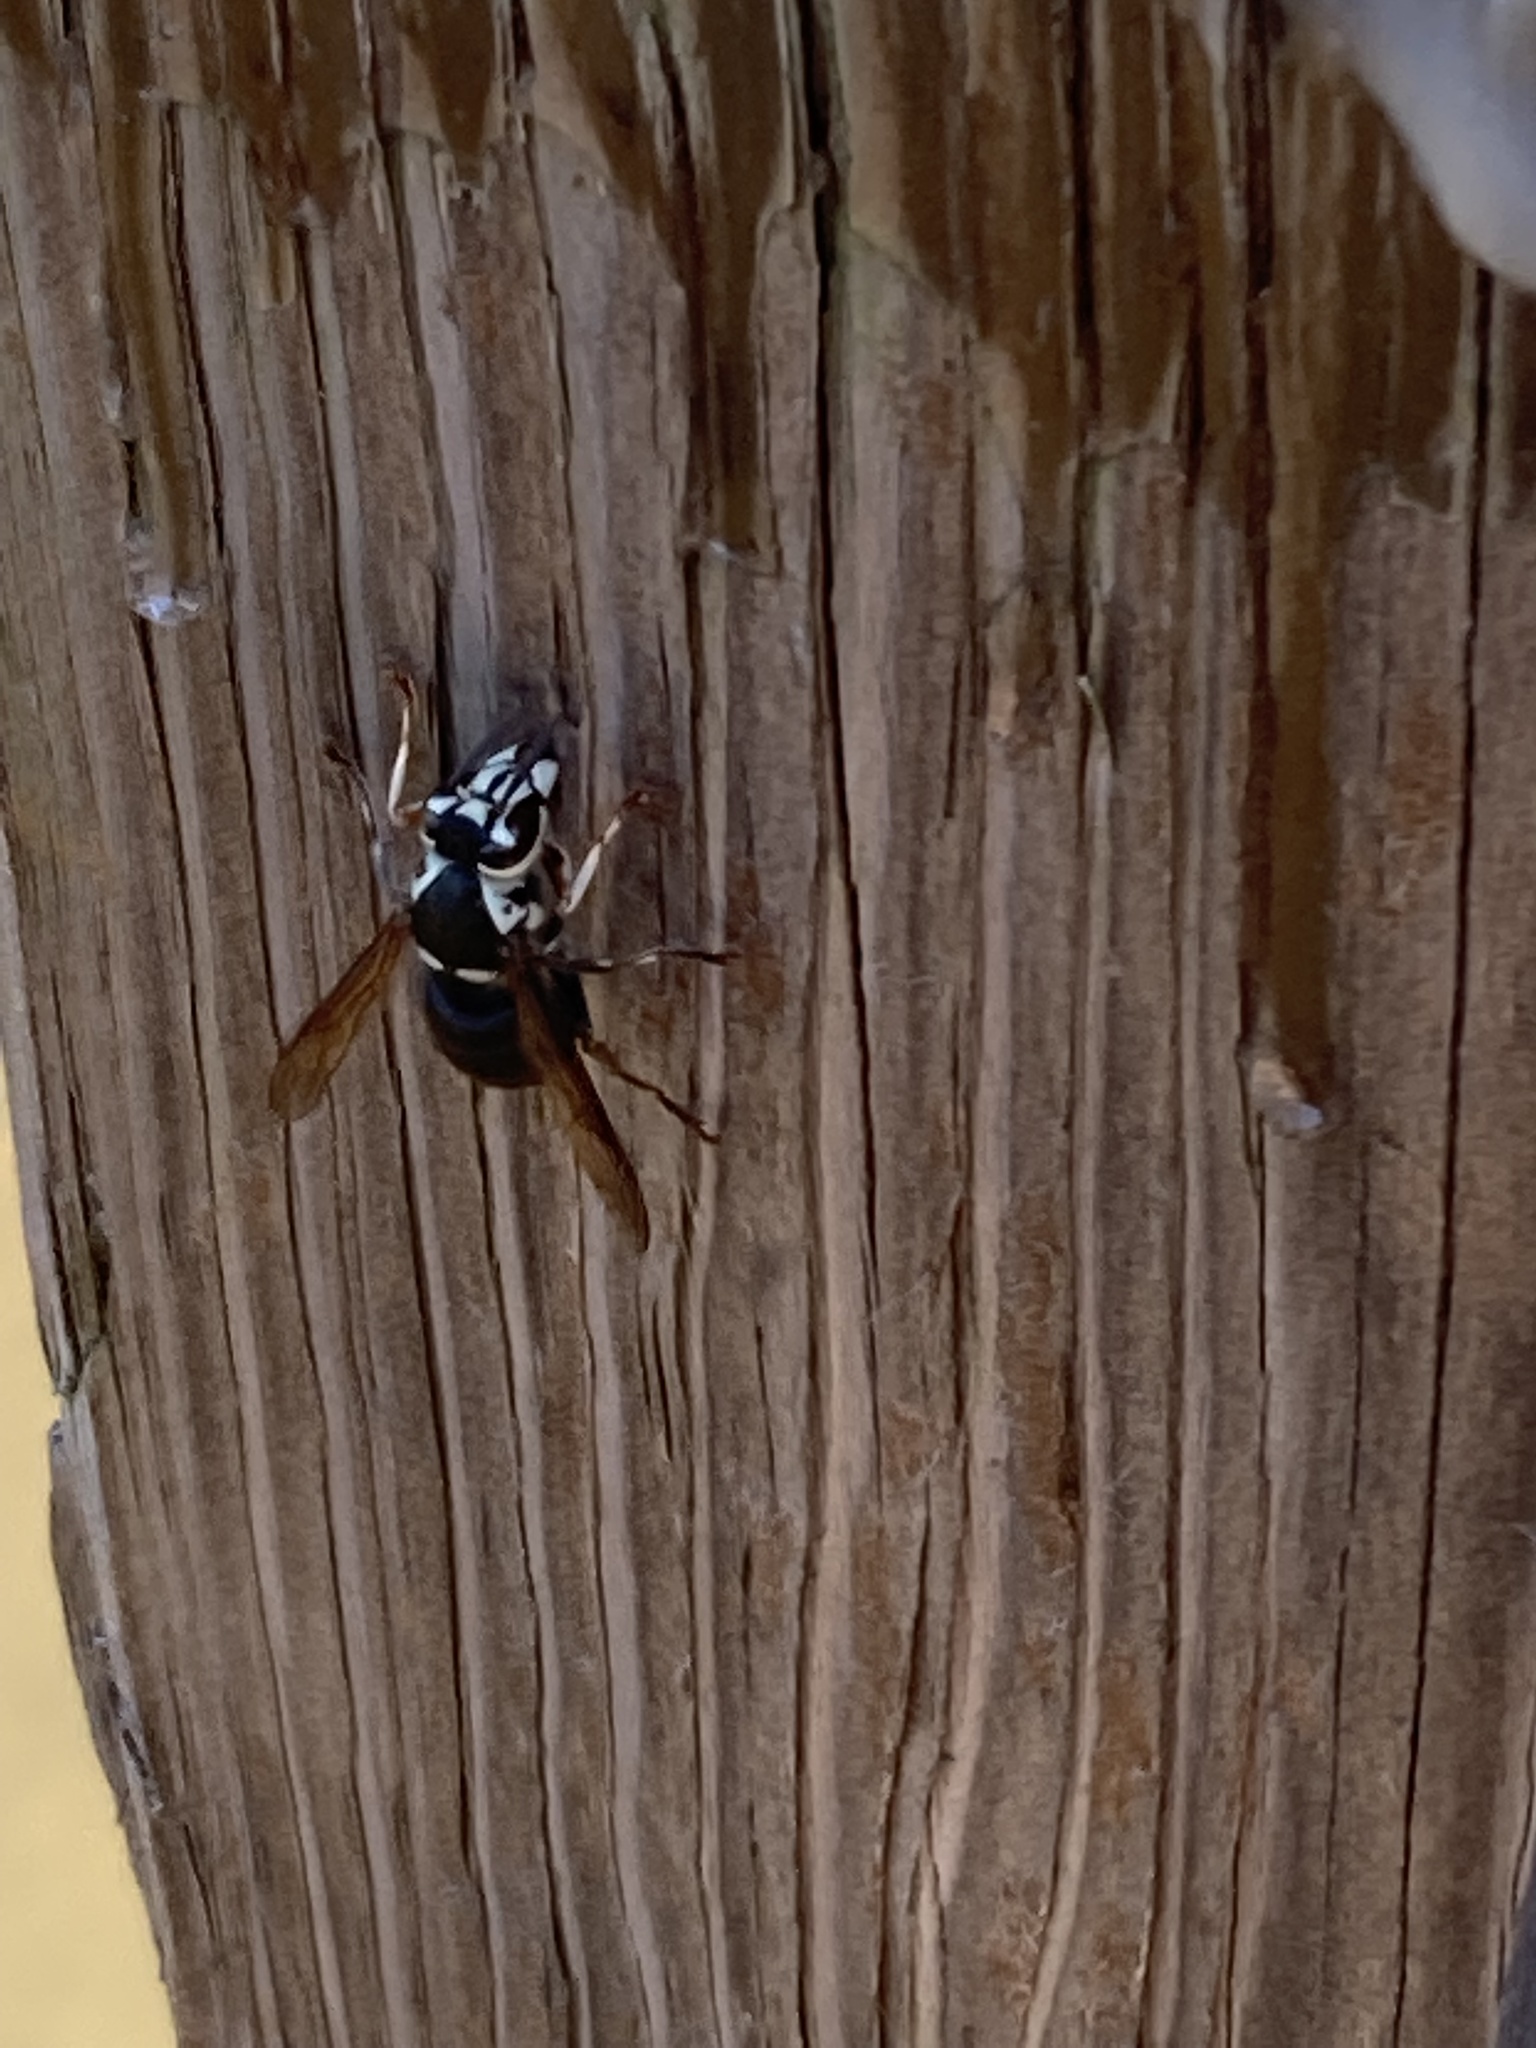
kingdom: Animalia
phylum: Arthropoda
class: Insecta
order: Hymenoptera
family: Vespidae
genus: Dolichovespula
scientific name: Dolichovespula maculata
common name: Bald-faced hornet
